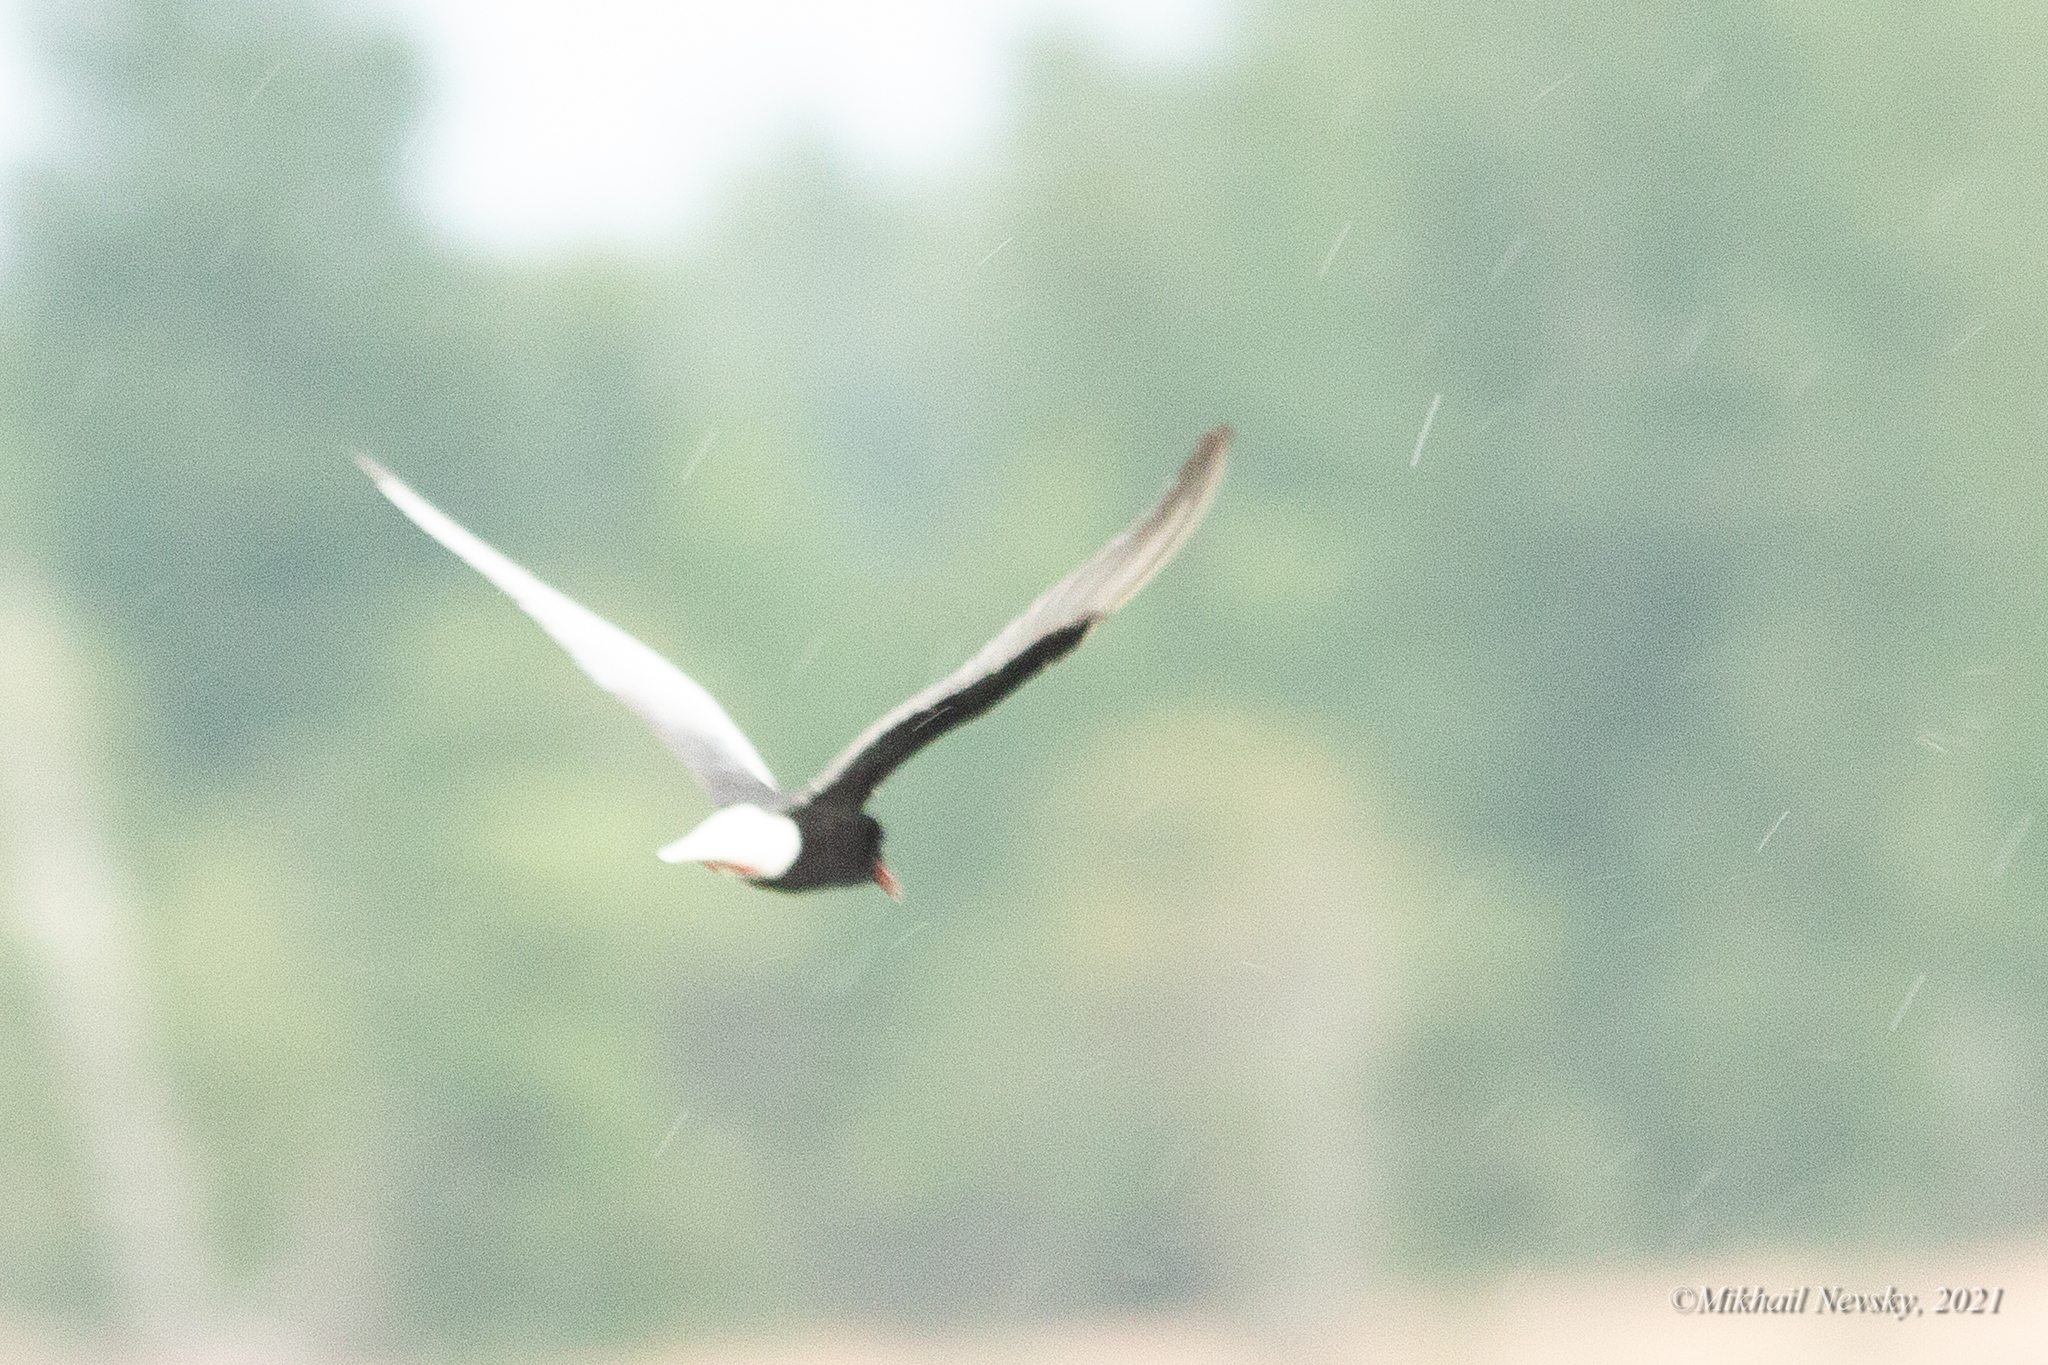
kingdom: Animalia
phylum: Chordata
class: Aves
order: Charadriiformes
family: Laridae
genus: Chlidonias
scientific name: Chlidonias leucopterus
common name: White-winged tern
